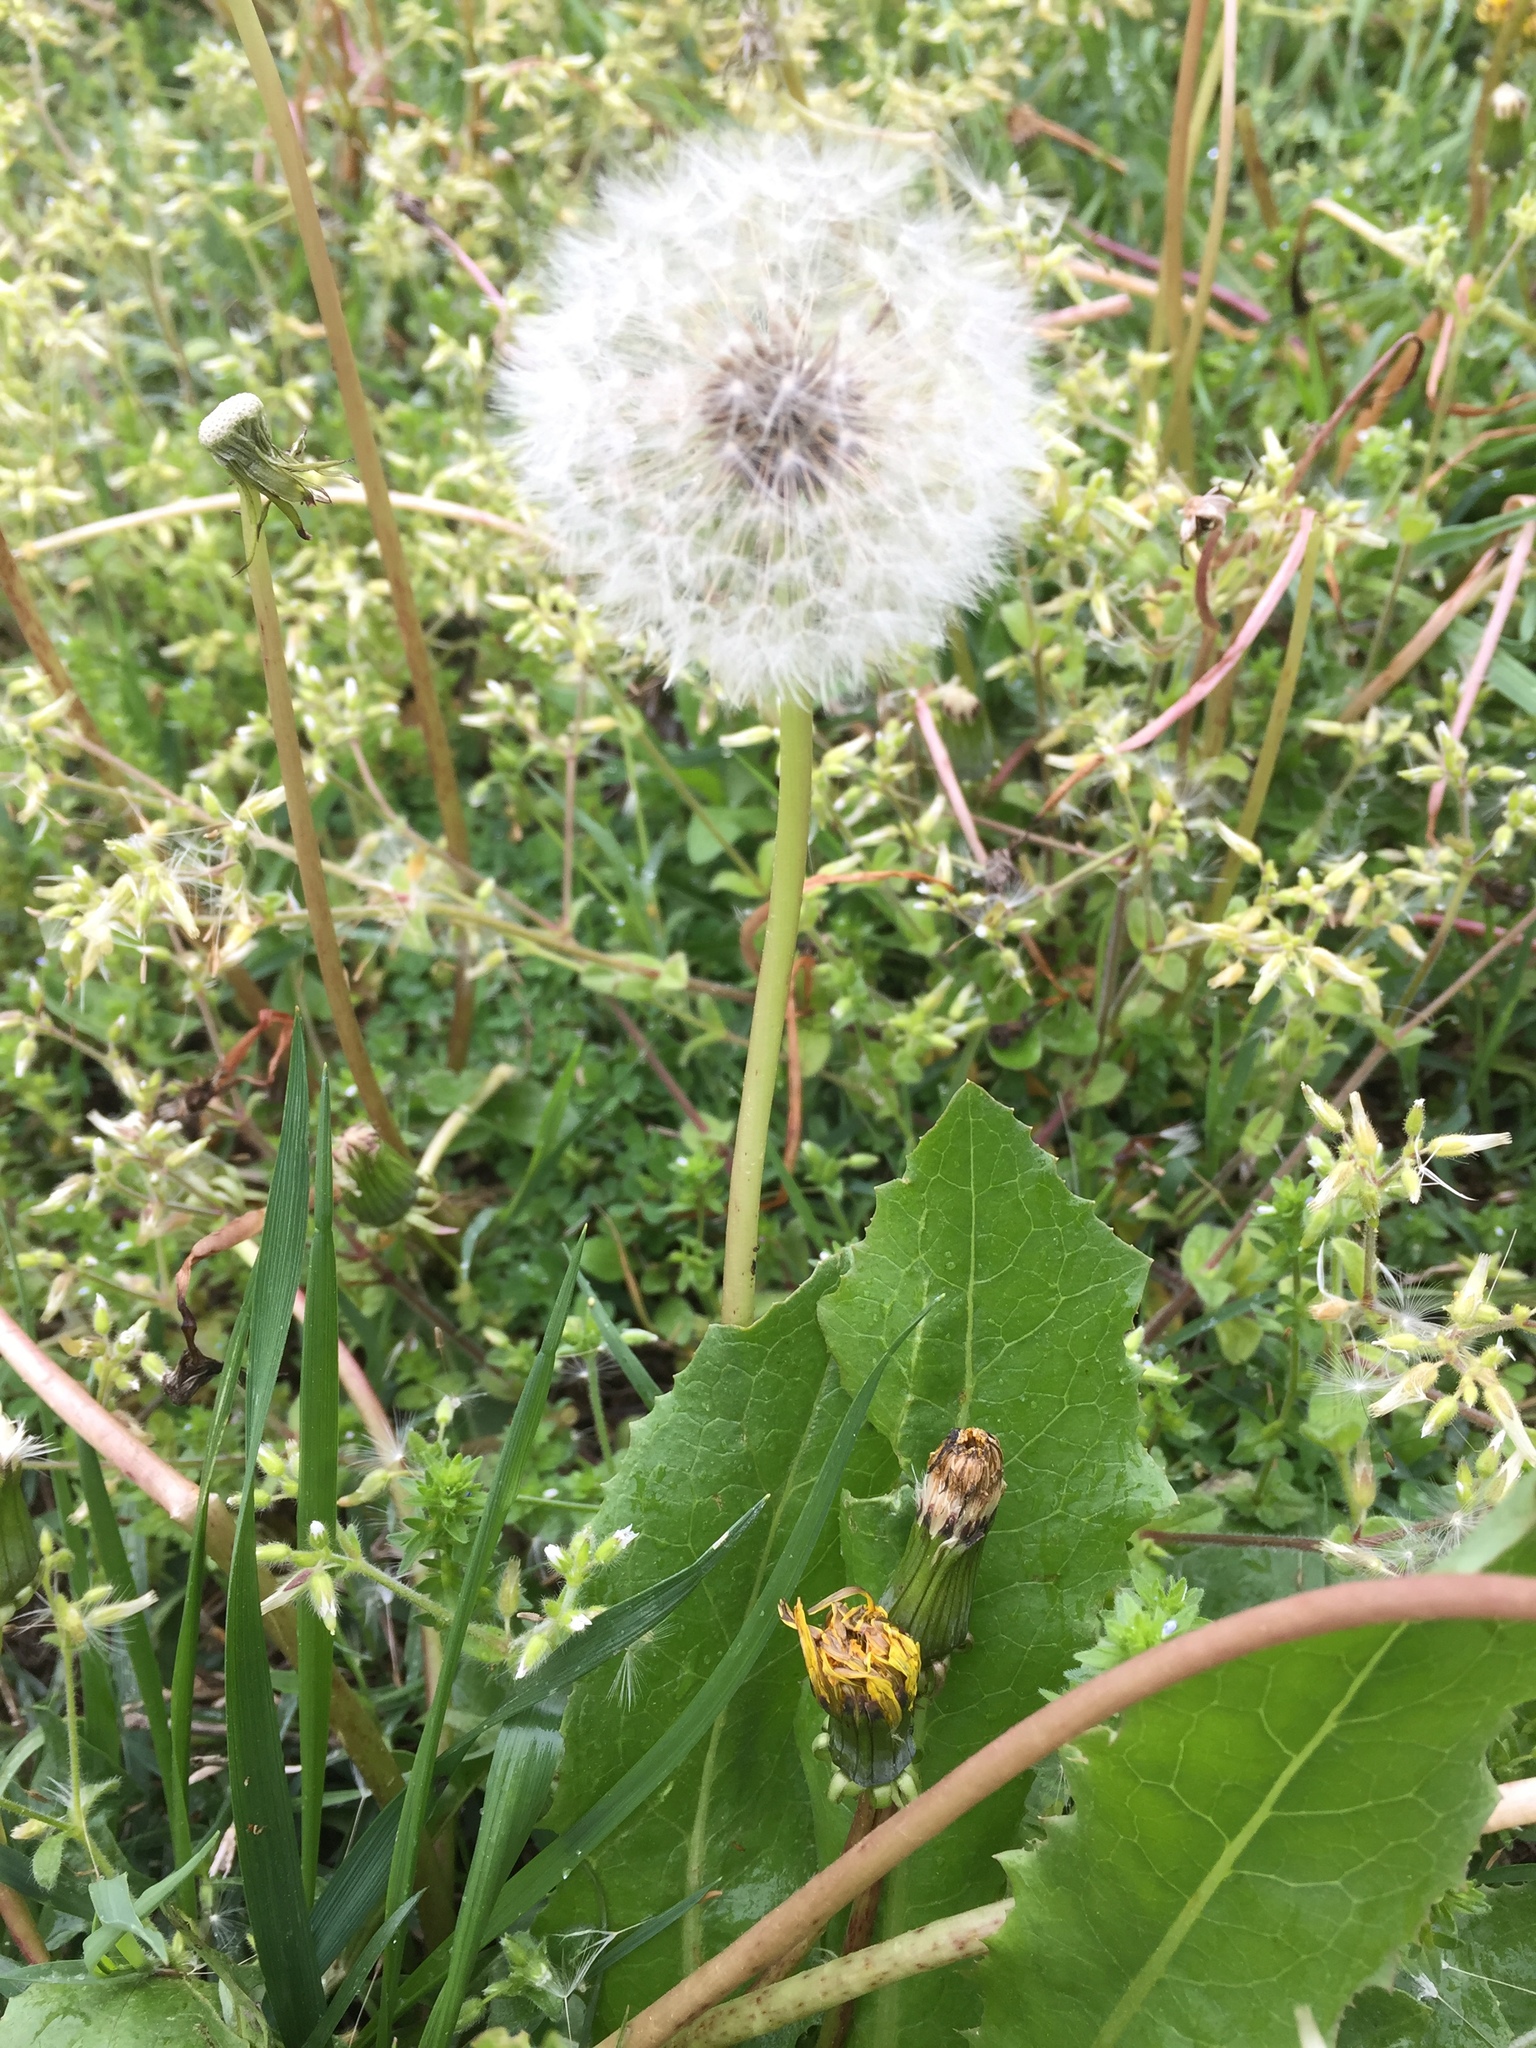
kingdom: Plantae
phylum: Tracheophyta
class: Magnoliopsida
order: Asterales
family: Asteraceae
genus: Taraxacum
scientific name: Taraxacum officinale
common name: Common dandelion
